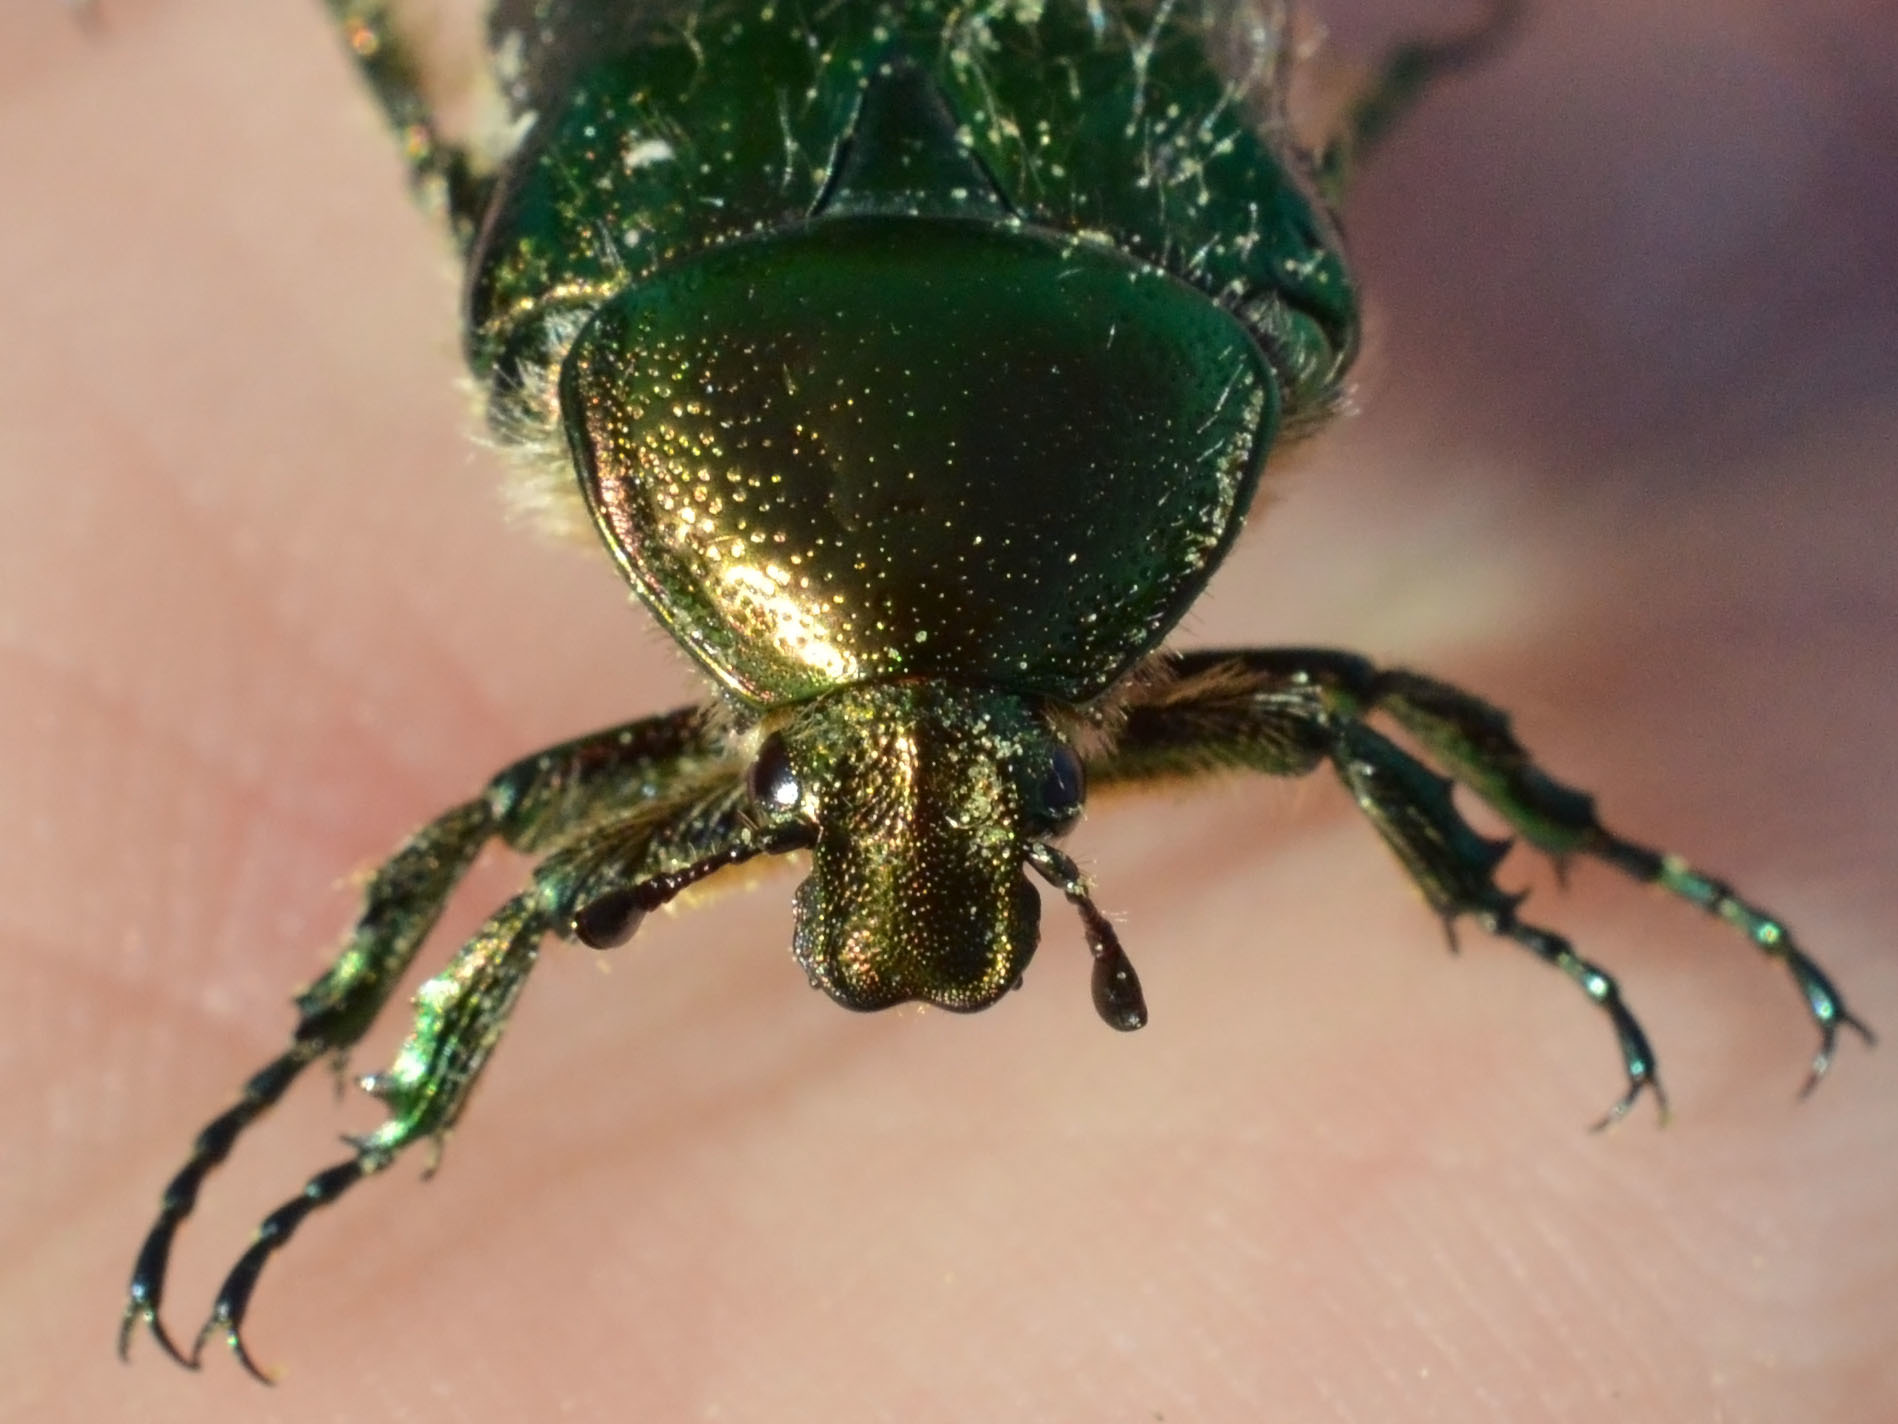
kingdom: Animalia
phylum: Arthropoda
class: Insecta
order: Coleoptera
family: Scarabaeidae
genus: Cetonia
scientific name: Cetonia aurata
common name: Rose chafer
